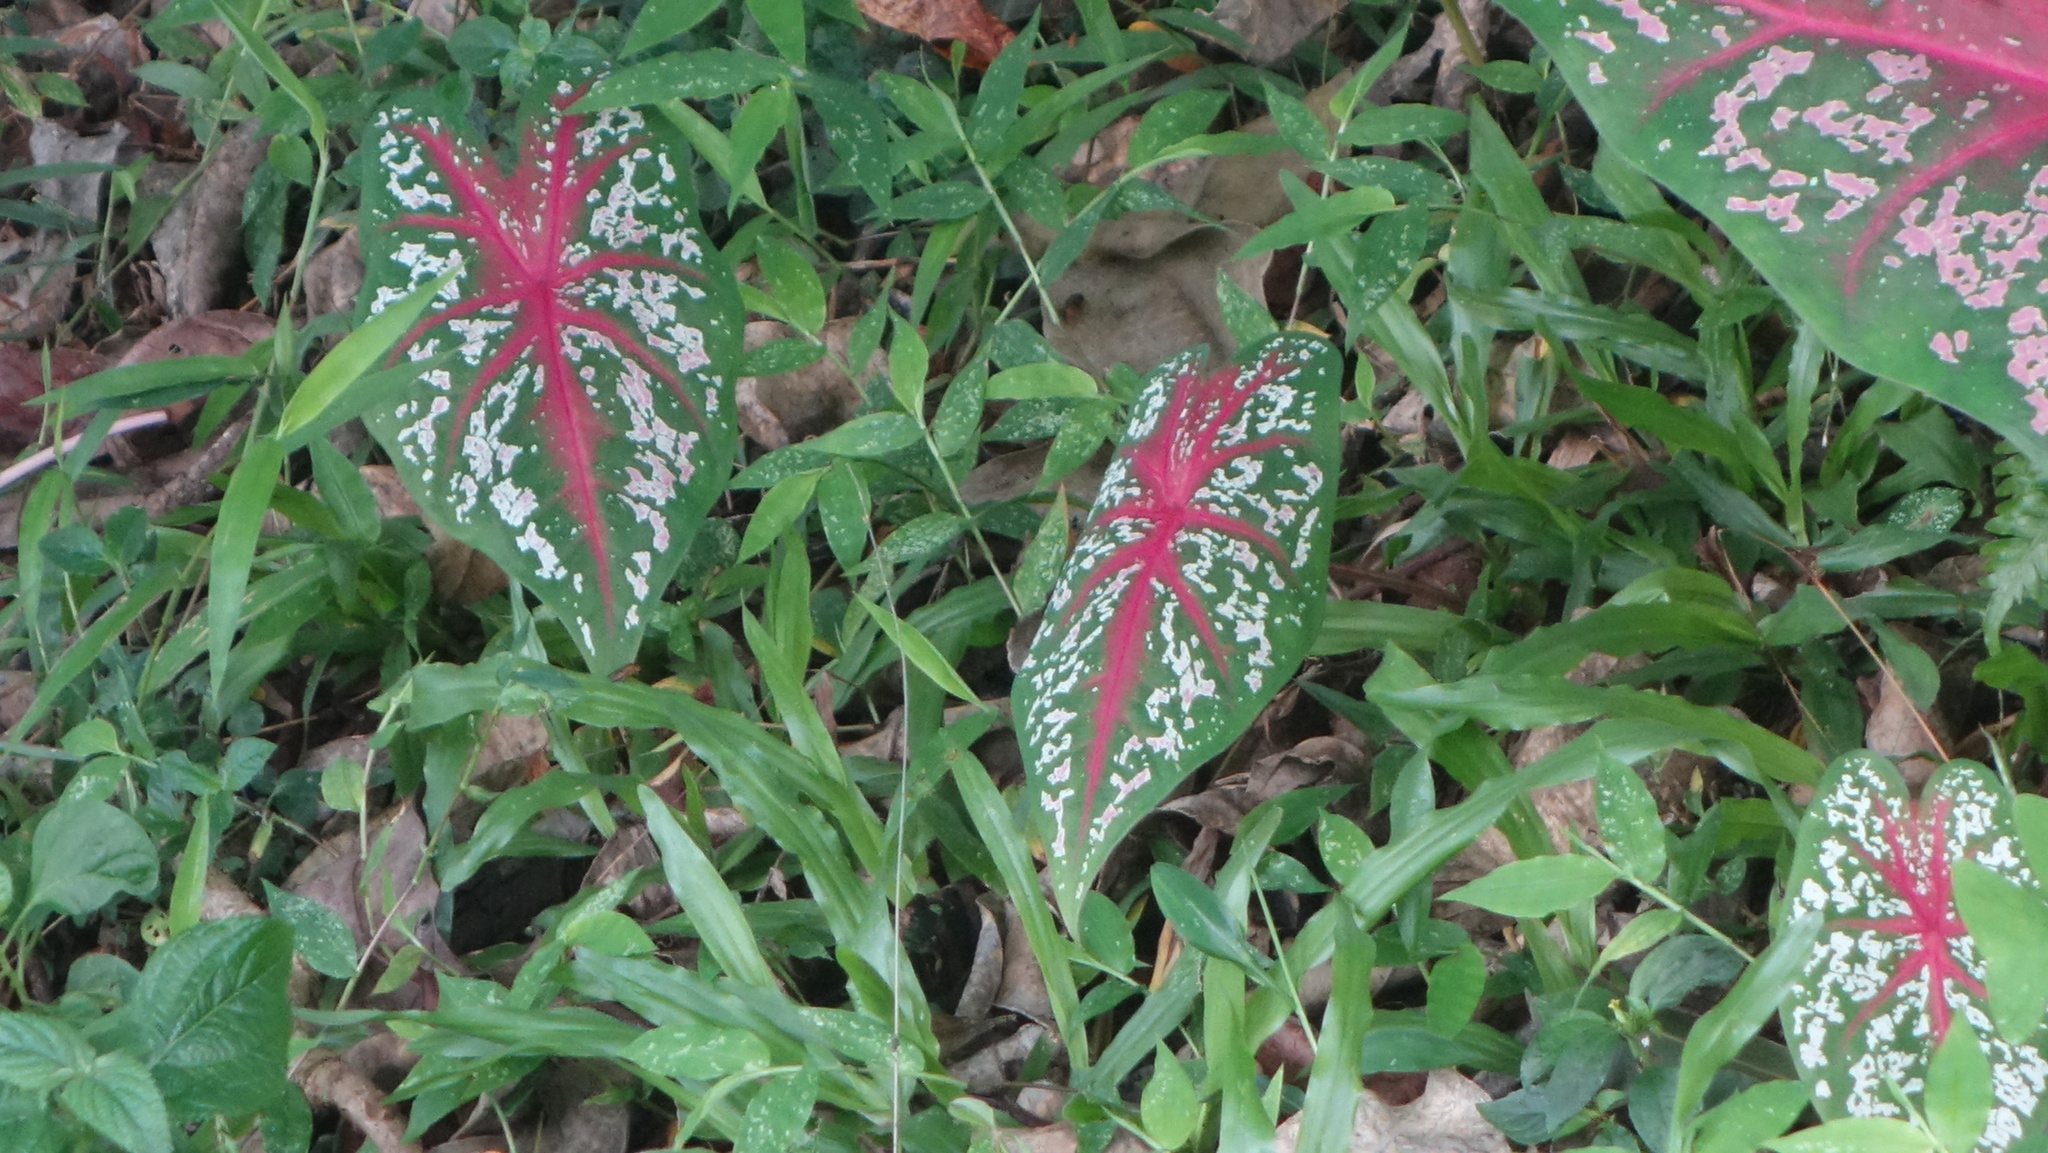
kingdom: Plantae
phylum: Tracheophyta
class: Liliopsida
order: Alismatales
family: Araceae
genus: Caladium
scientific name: Caladium bicolor
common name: Artist's pallet
